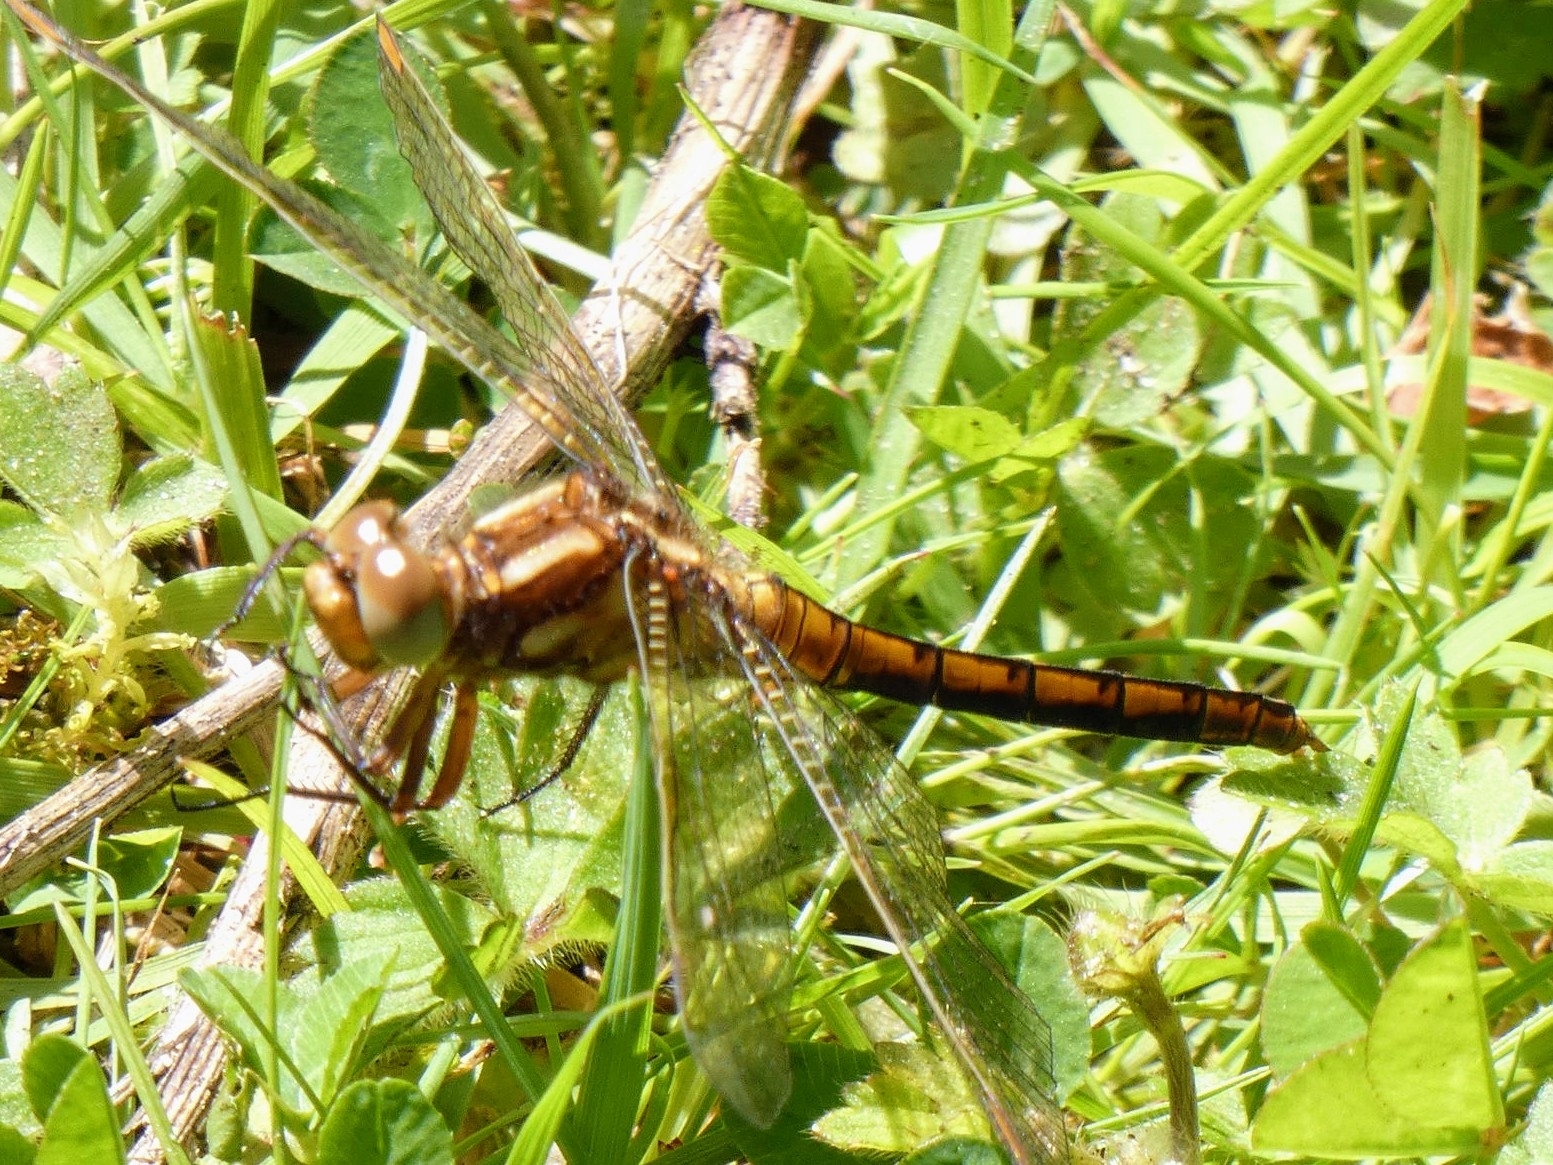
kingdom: Animalia
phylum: Arthropoda
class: Insecta
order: Odonata
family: Libellulidae
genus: Orthetrum
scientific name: Orthetrum coerulescens
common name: Keeled skimmer
